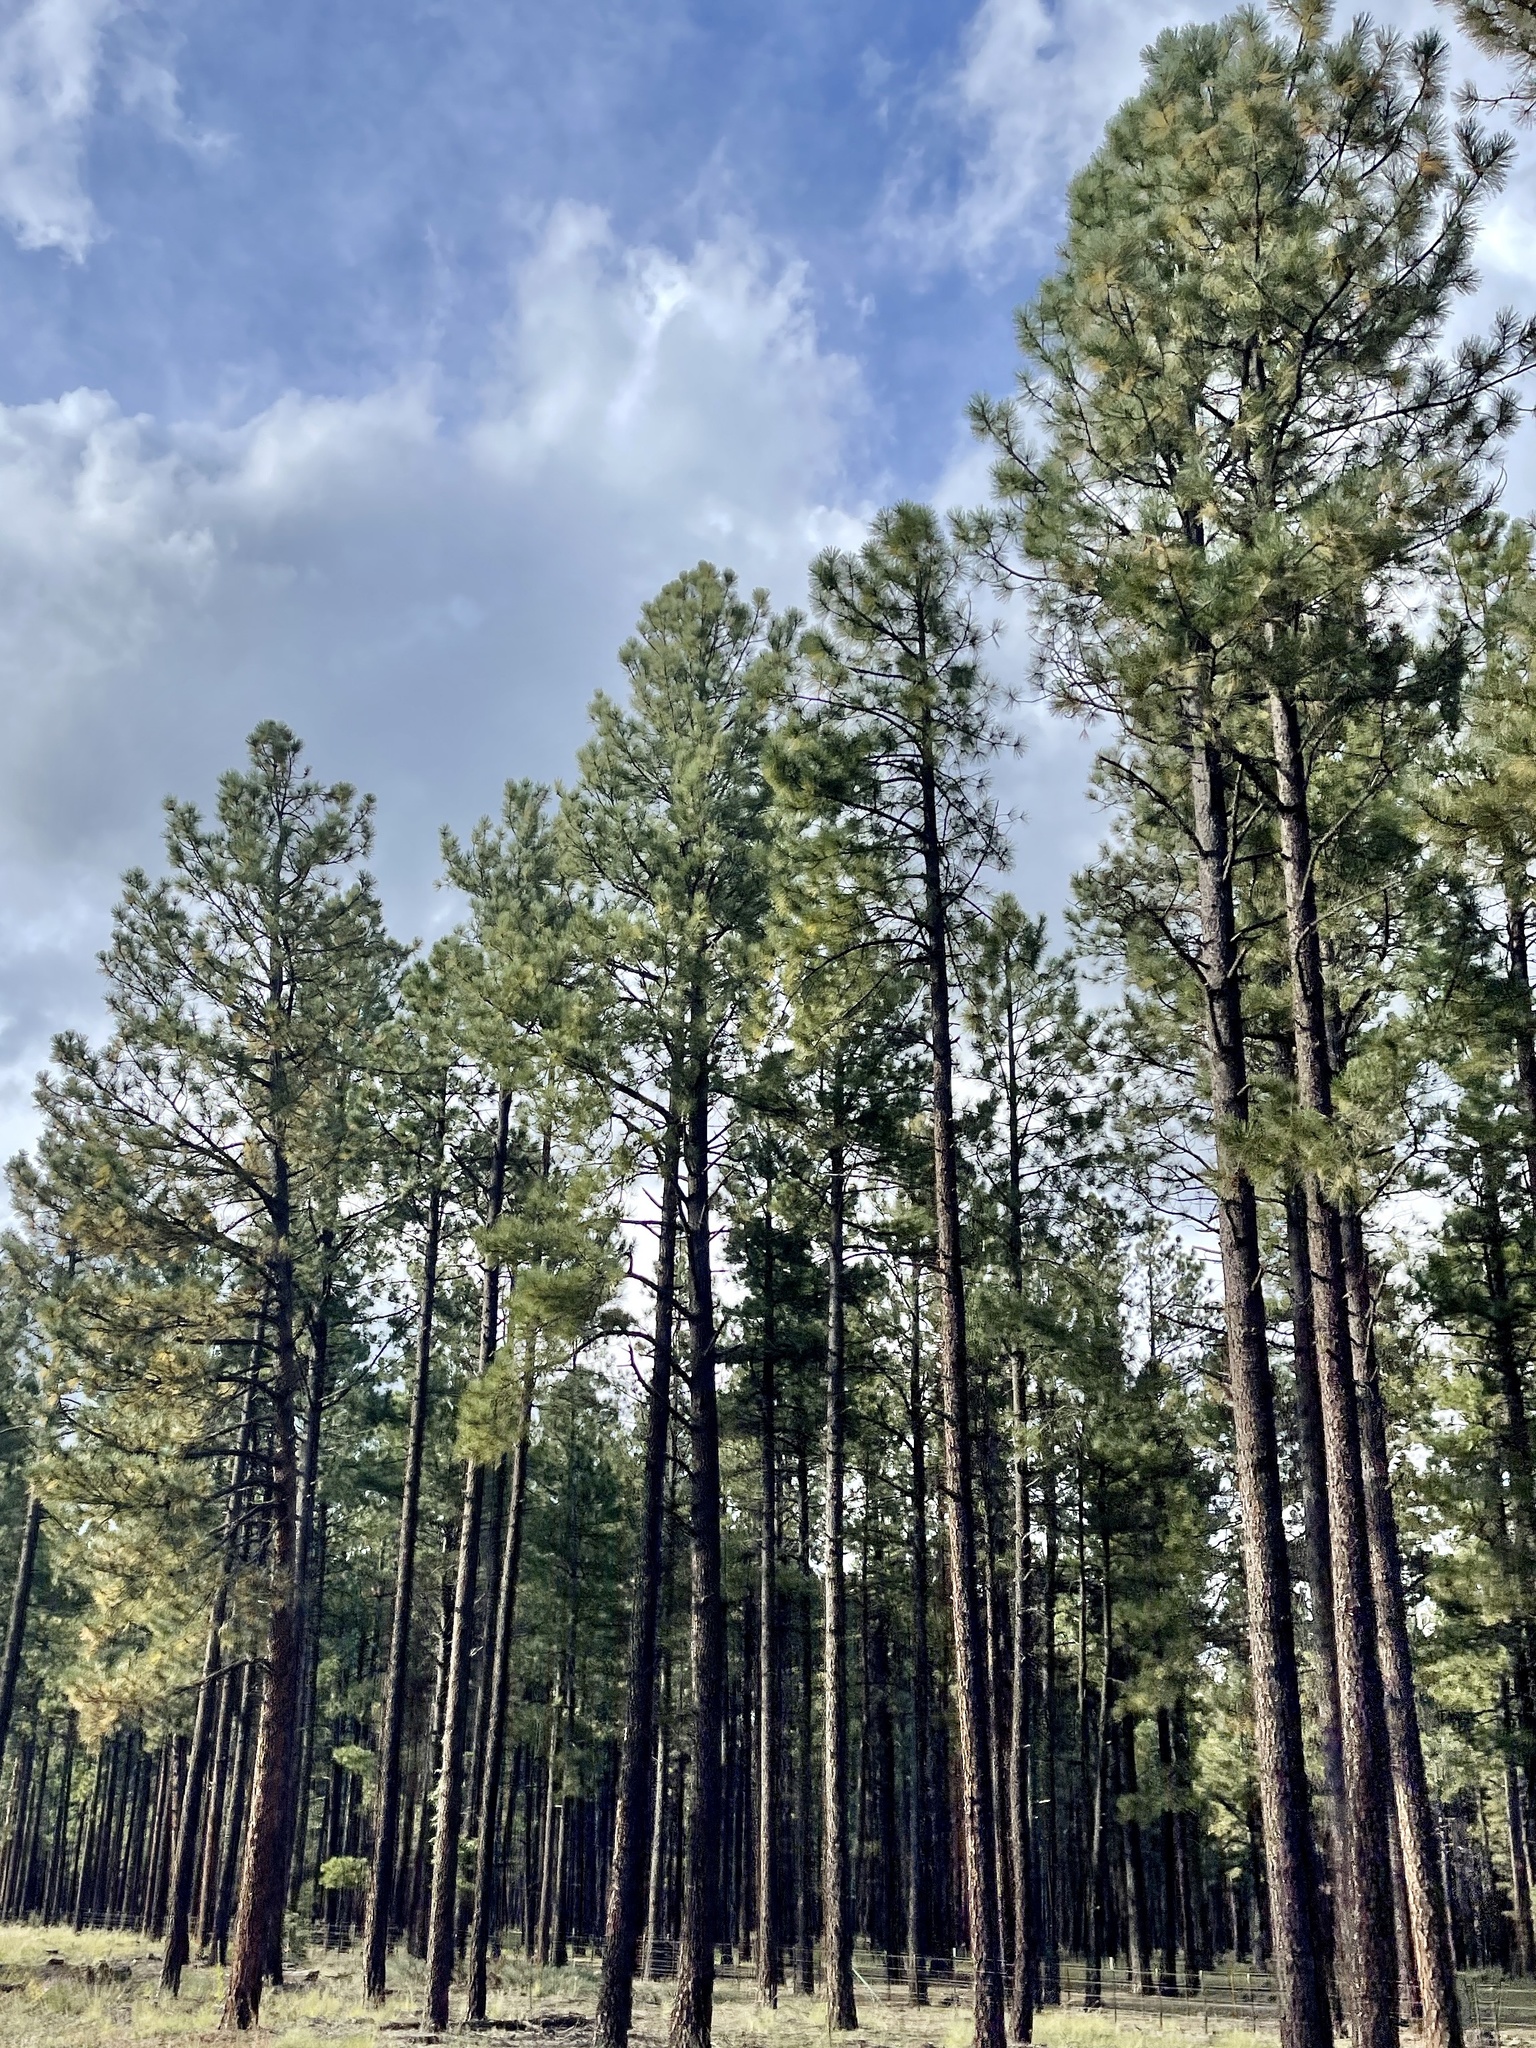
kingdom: Plantae
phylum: Tracheophyta
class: Pinopsida
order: Pinales
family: Pinaceae
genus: Pinus
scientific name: Pinus ponderosa
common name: Western yellow-pine
